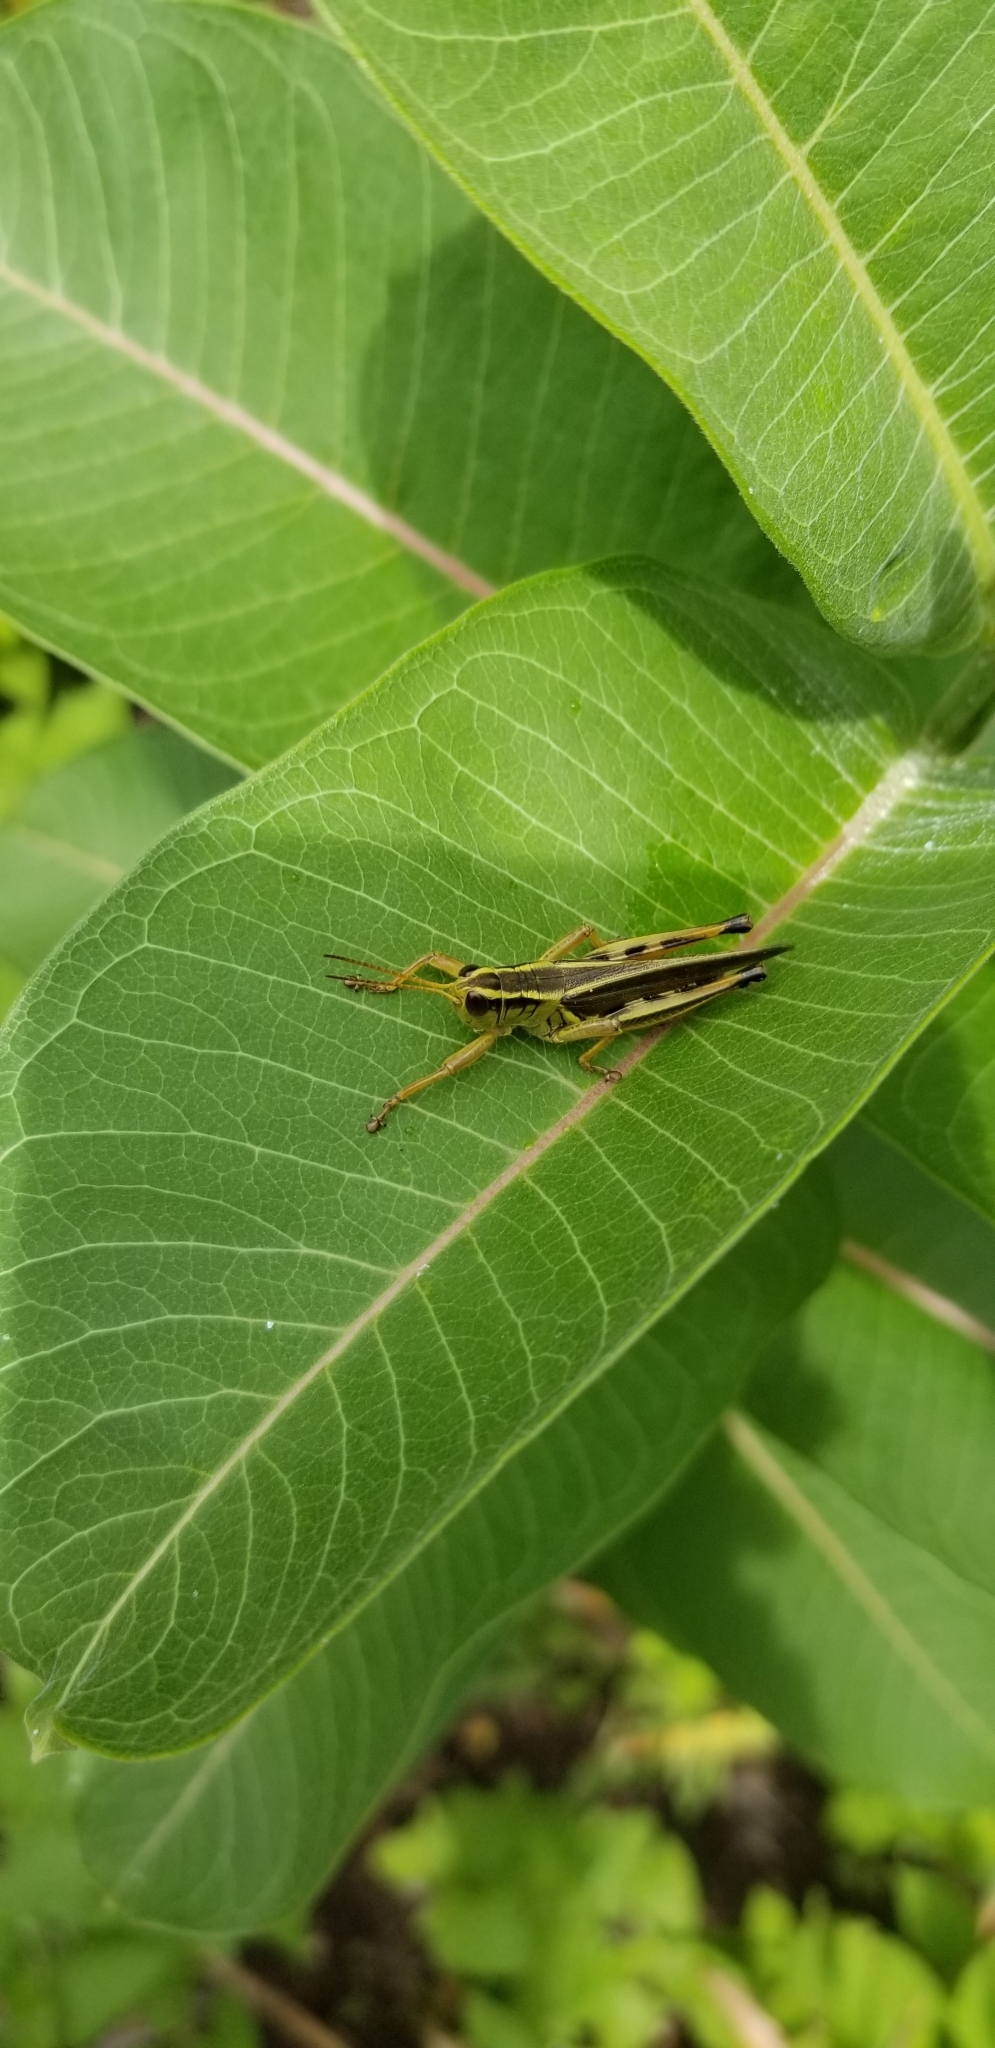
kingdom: Animalia
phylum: Arthropoda
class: Insecta
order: Orthoptera
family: Acrididae
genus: Melanoplus
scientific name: Melanoplus bivittatus
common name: Two-striped grasshopper
